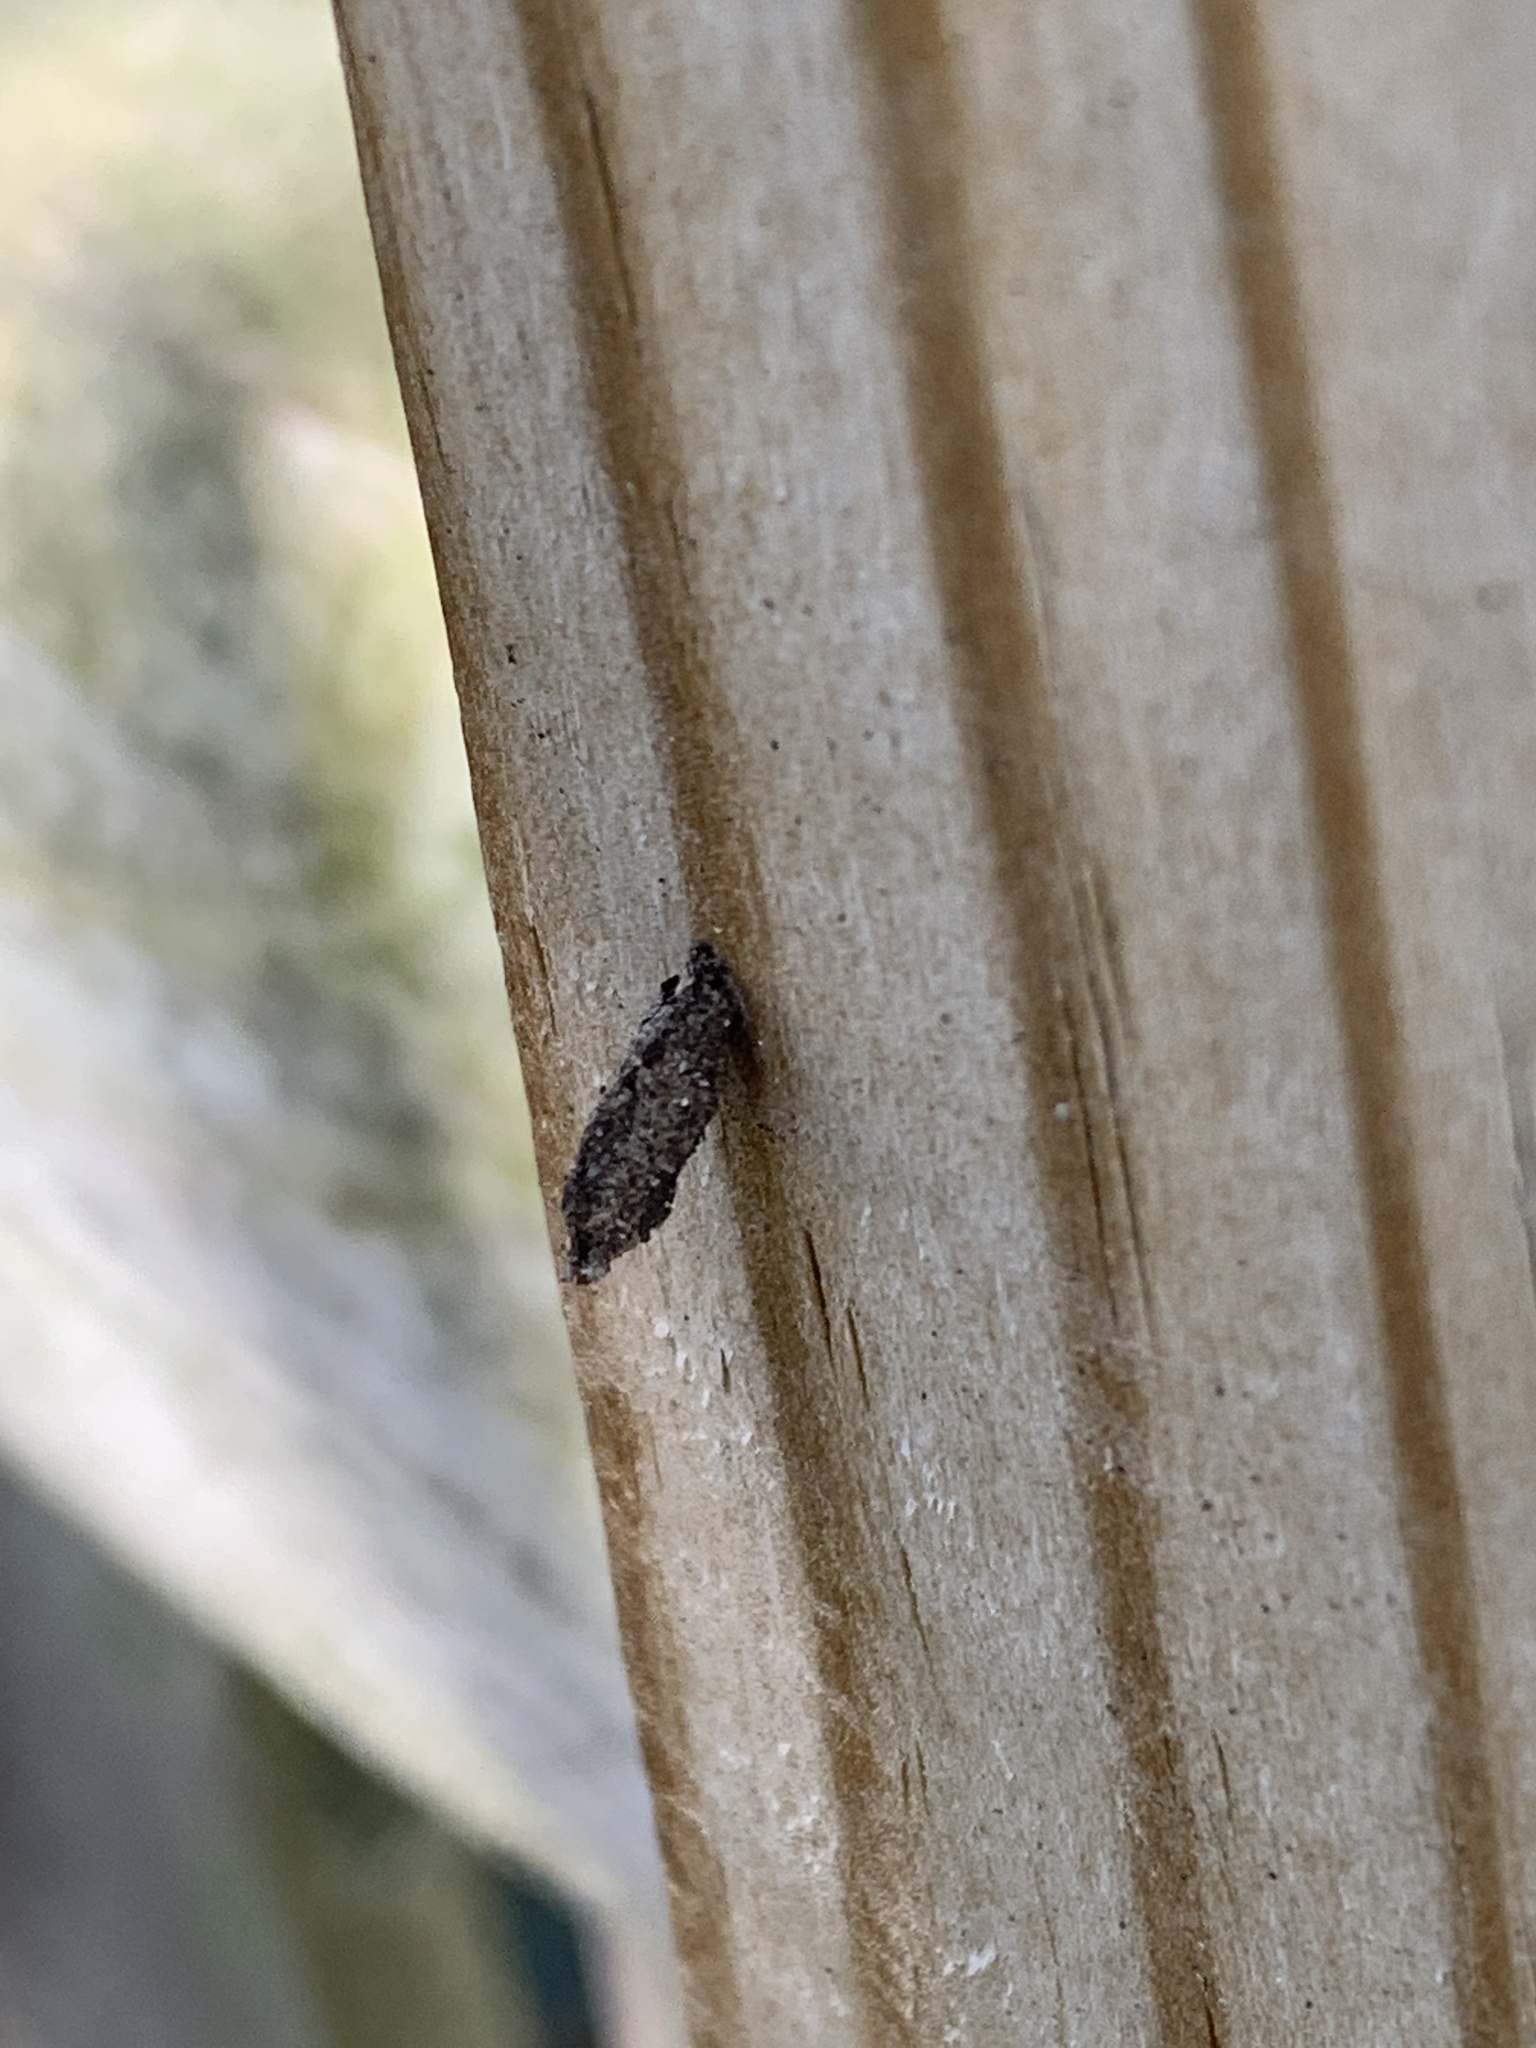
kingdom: Animalia
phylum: Arthropoda
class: Insecta
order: Lepidoptera
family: Psychidae
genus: Dahlica
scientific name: Dahlica triquetrella
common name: Narrow lichen case-bearer
